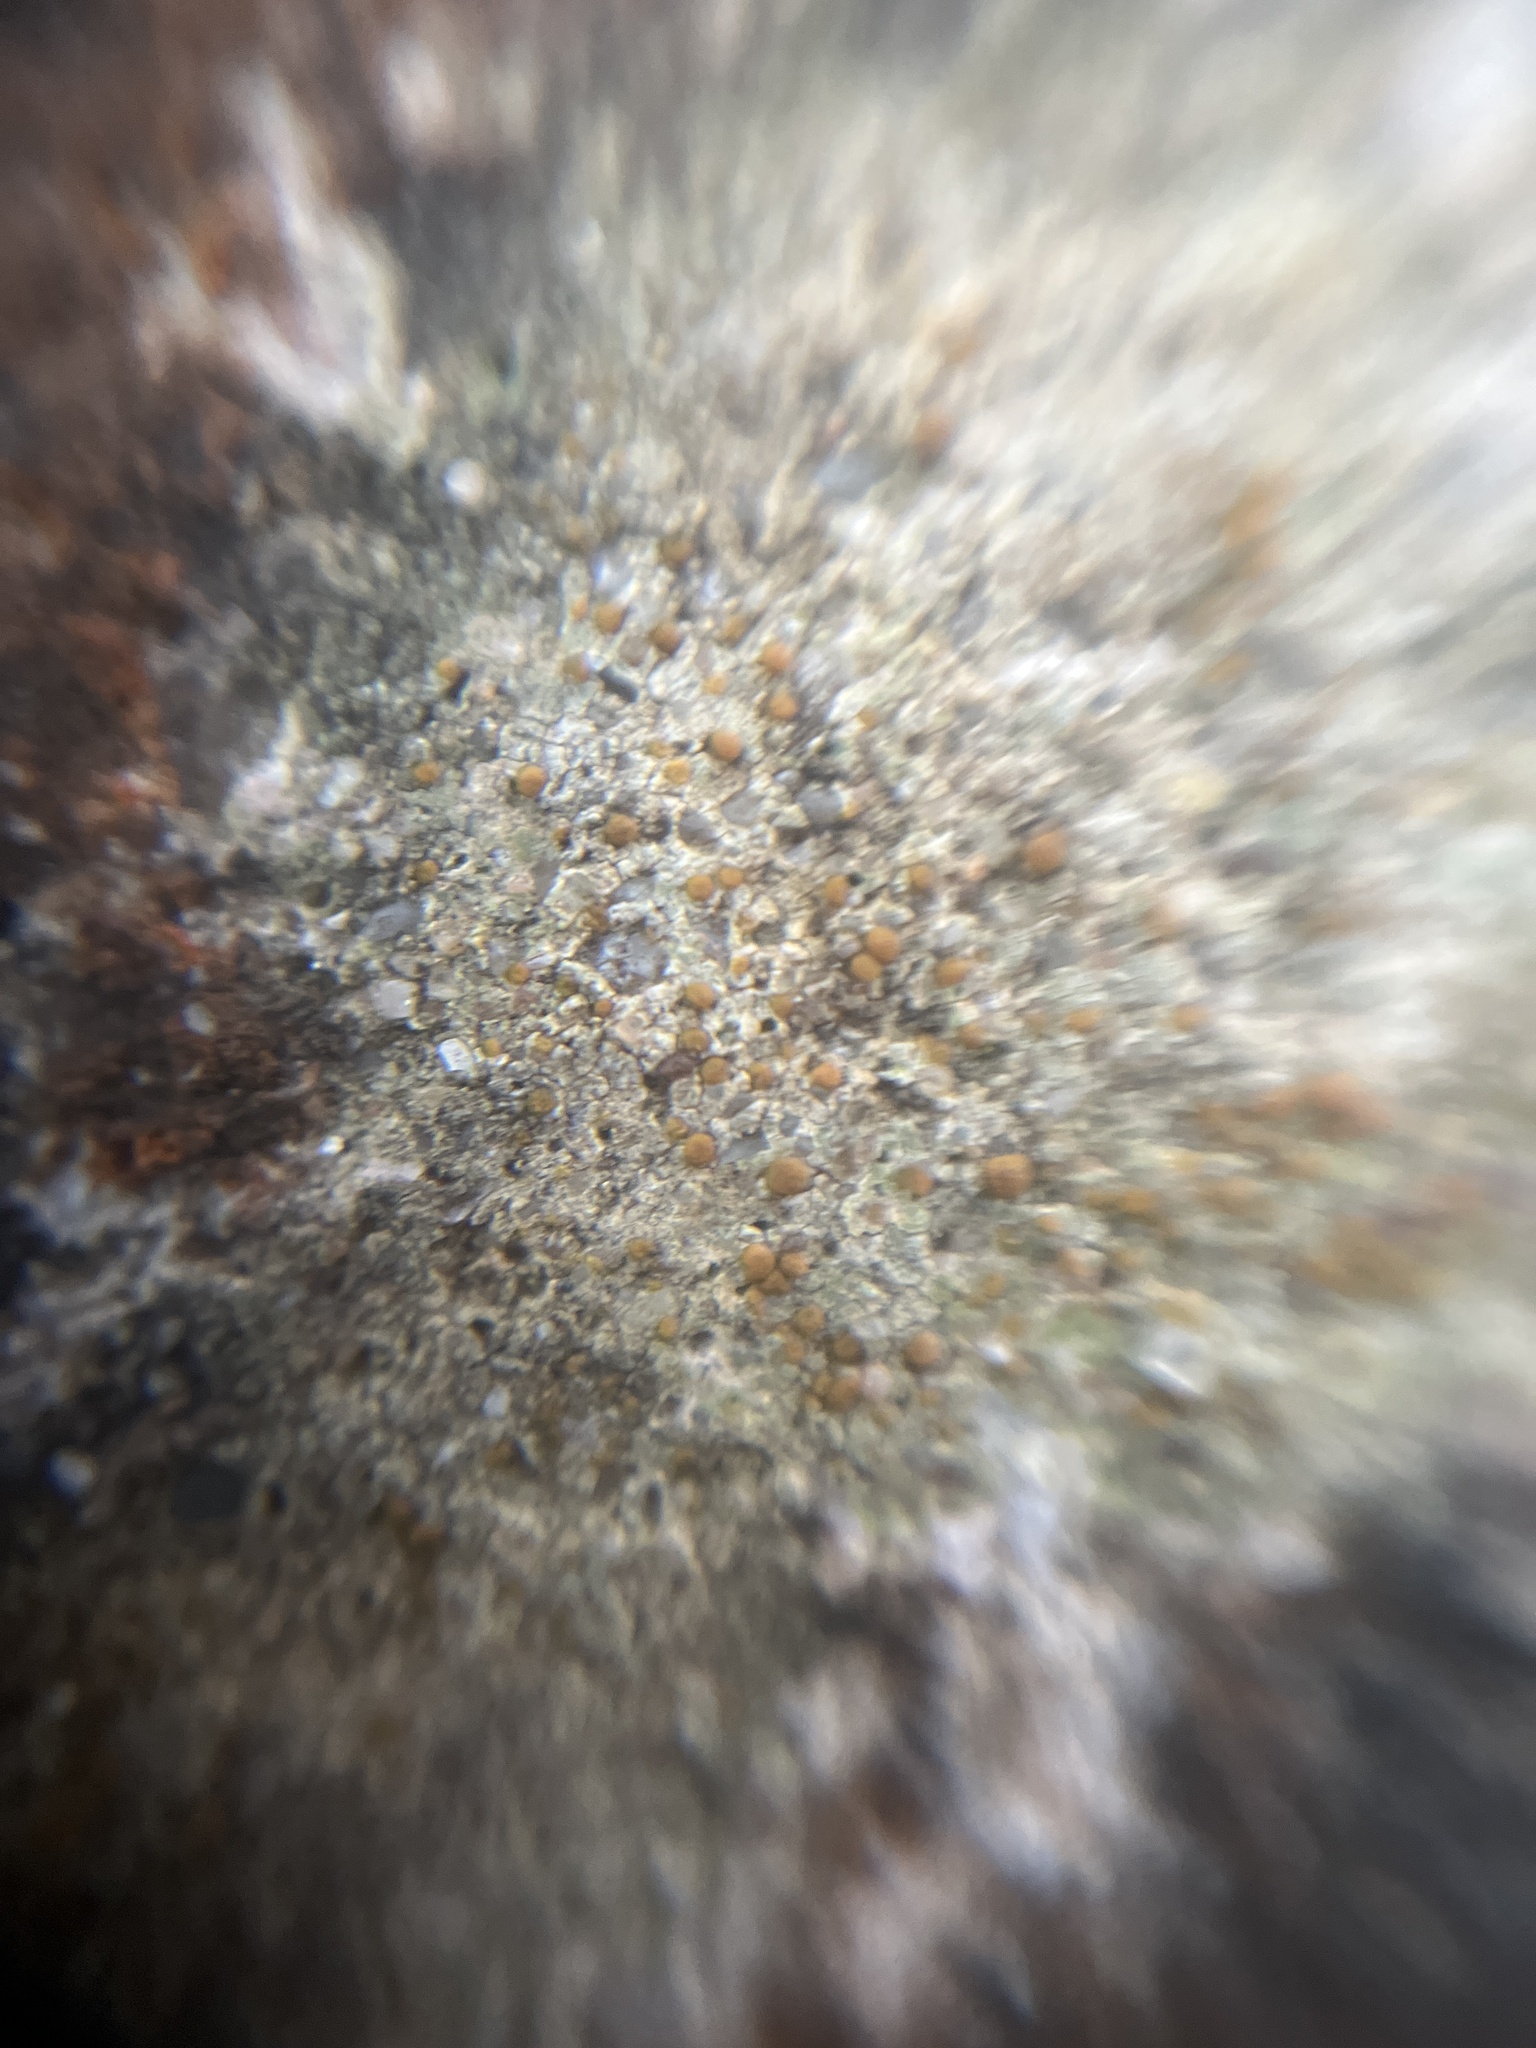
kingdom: Fungi
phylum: Ascomycota
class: Lecanoromycetes
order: Lecanorales
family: Psoraceae
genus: Protoblastenia
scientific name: Protoblastenia rupestris
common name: Chewing gum lichen
